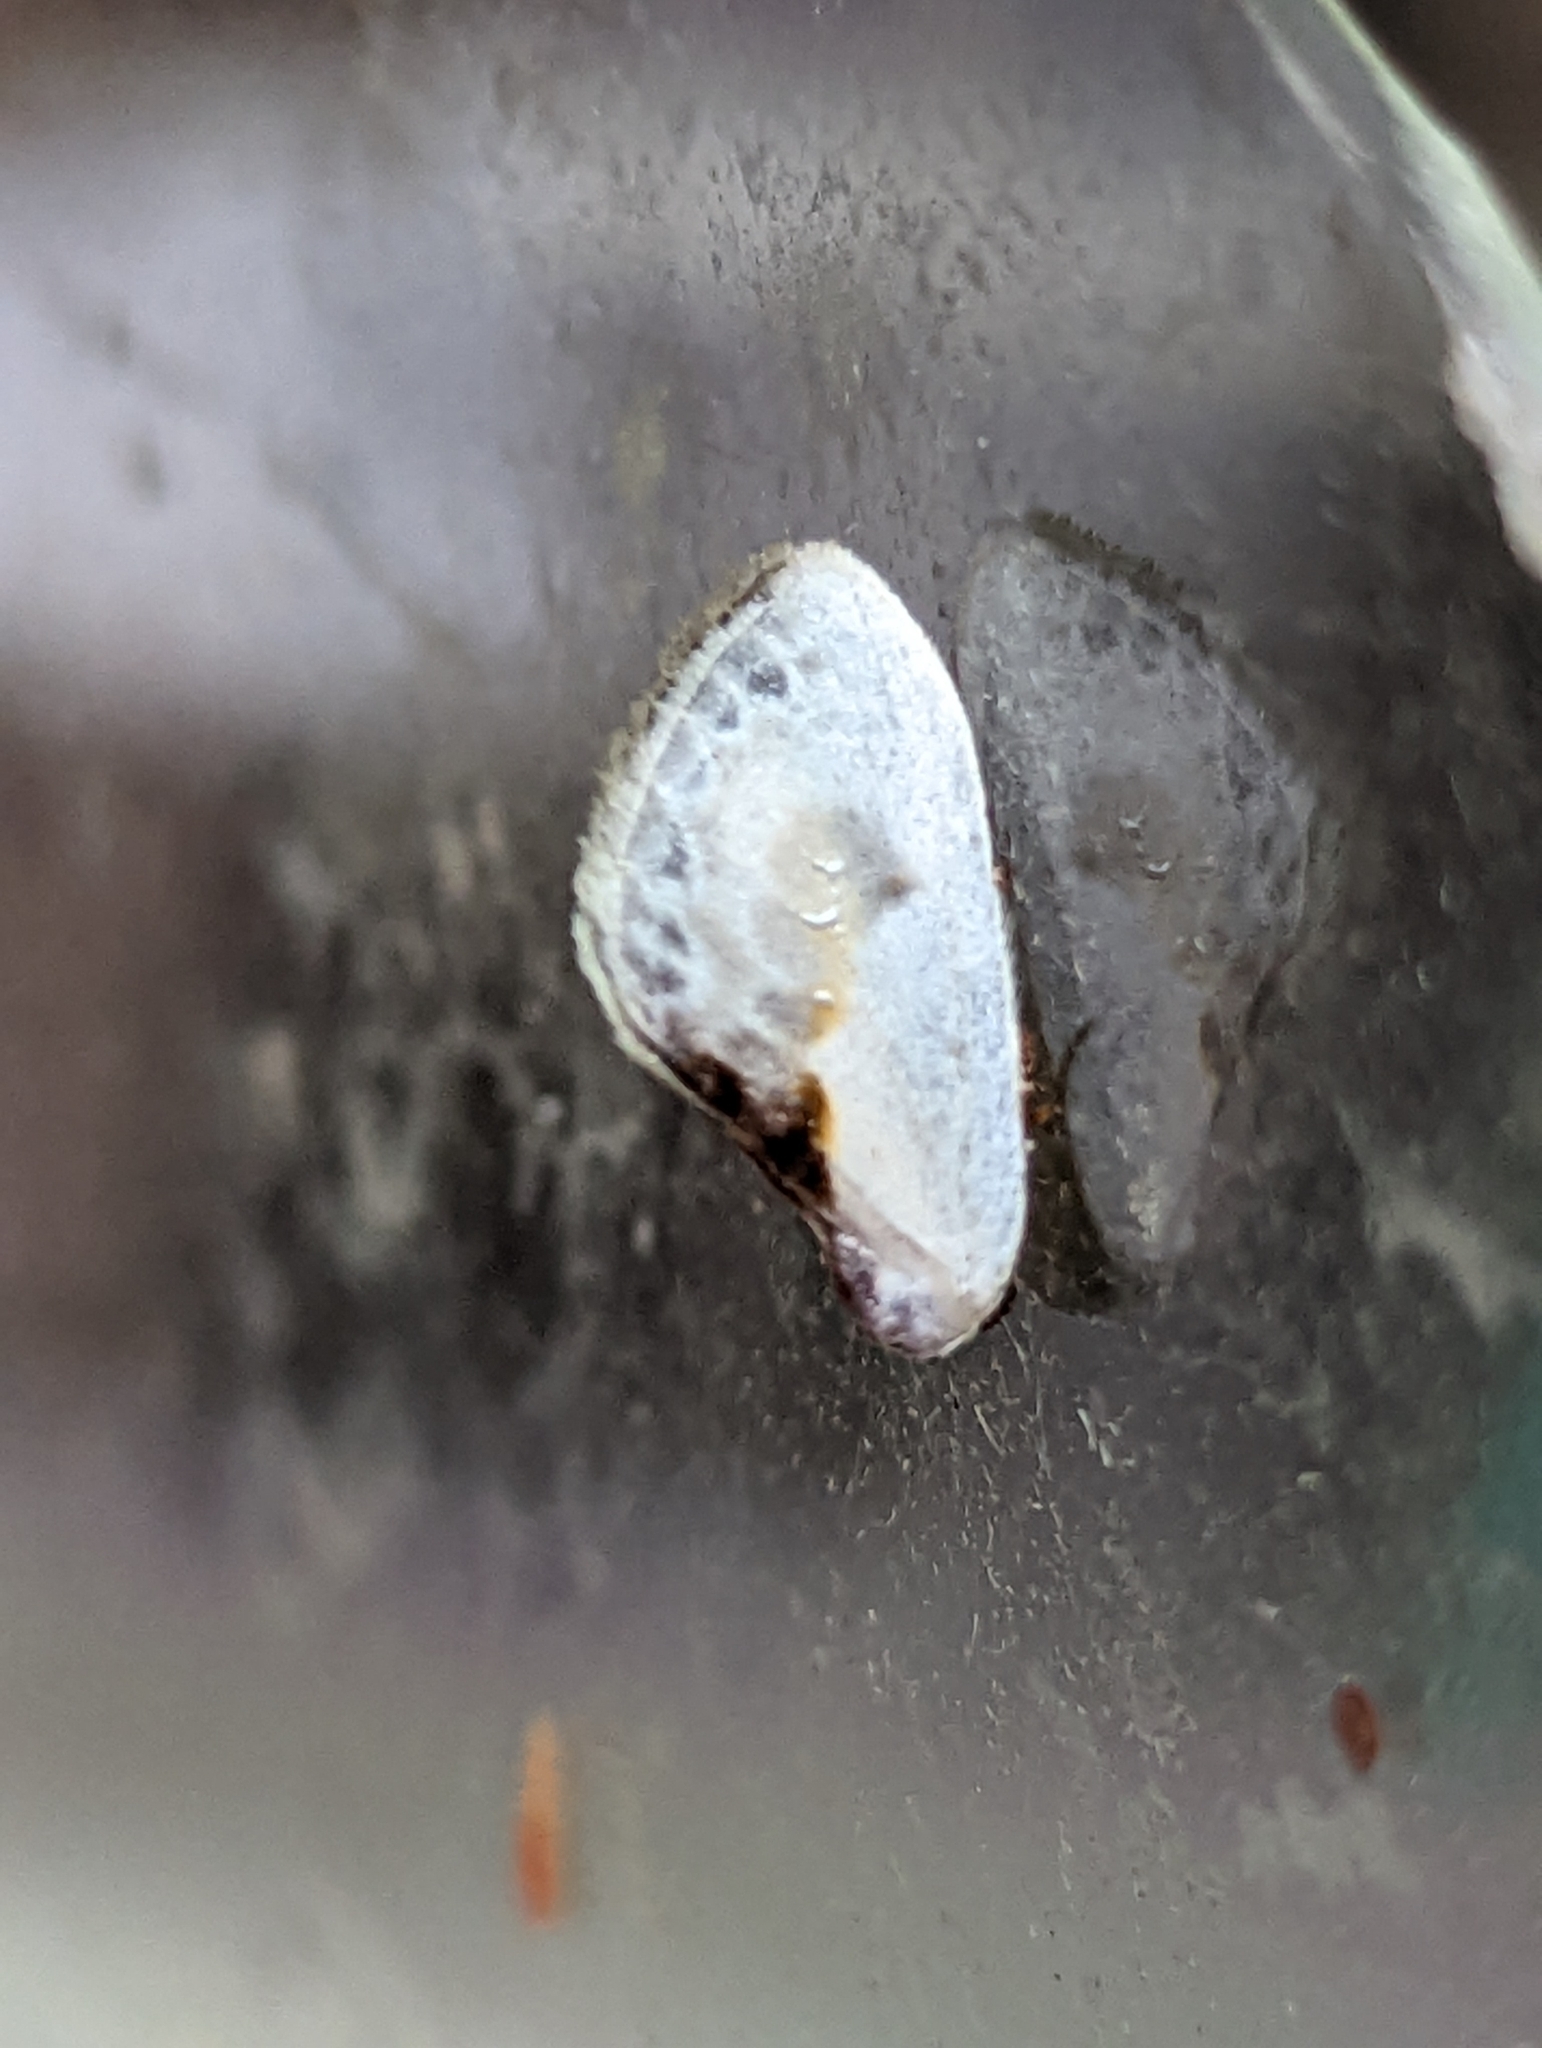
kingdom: Animalia
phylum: Arthropoda
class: Insecta
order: Lepidoptera
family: Drepanidae
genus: Cilix
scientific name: Cilix glaucata
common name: Chinese character
